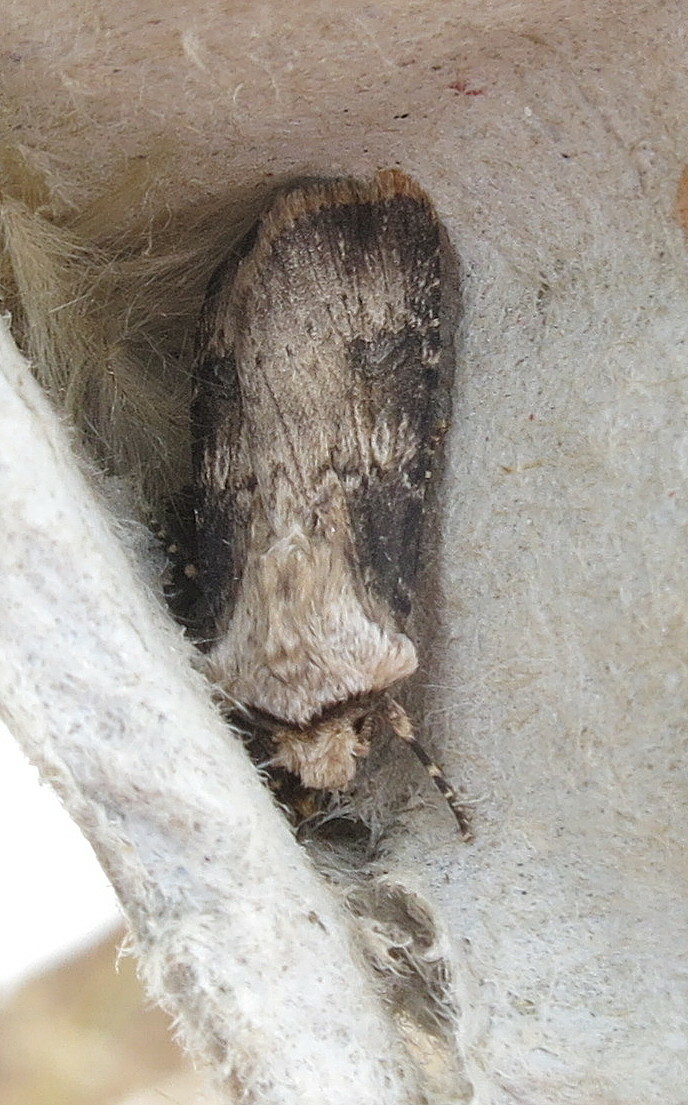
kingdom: Animalia
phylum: Arthropoda
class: Insecta
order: Lepidoptera
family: Noctuidae
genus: Agrotis
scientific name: Agrotis puta
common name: Shuttle-shaped dart
